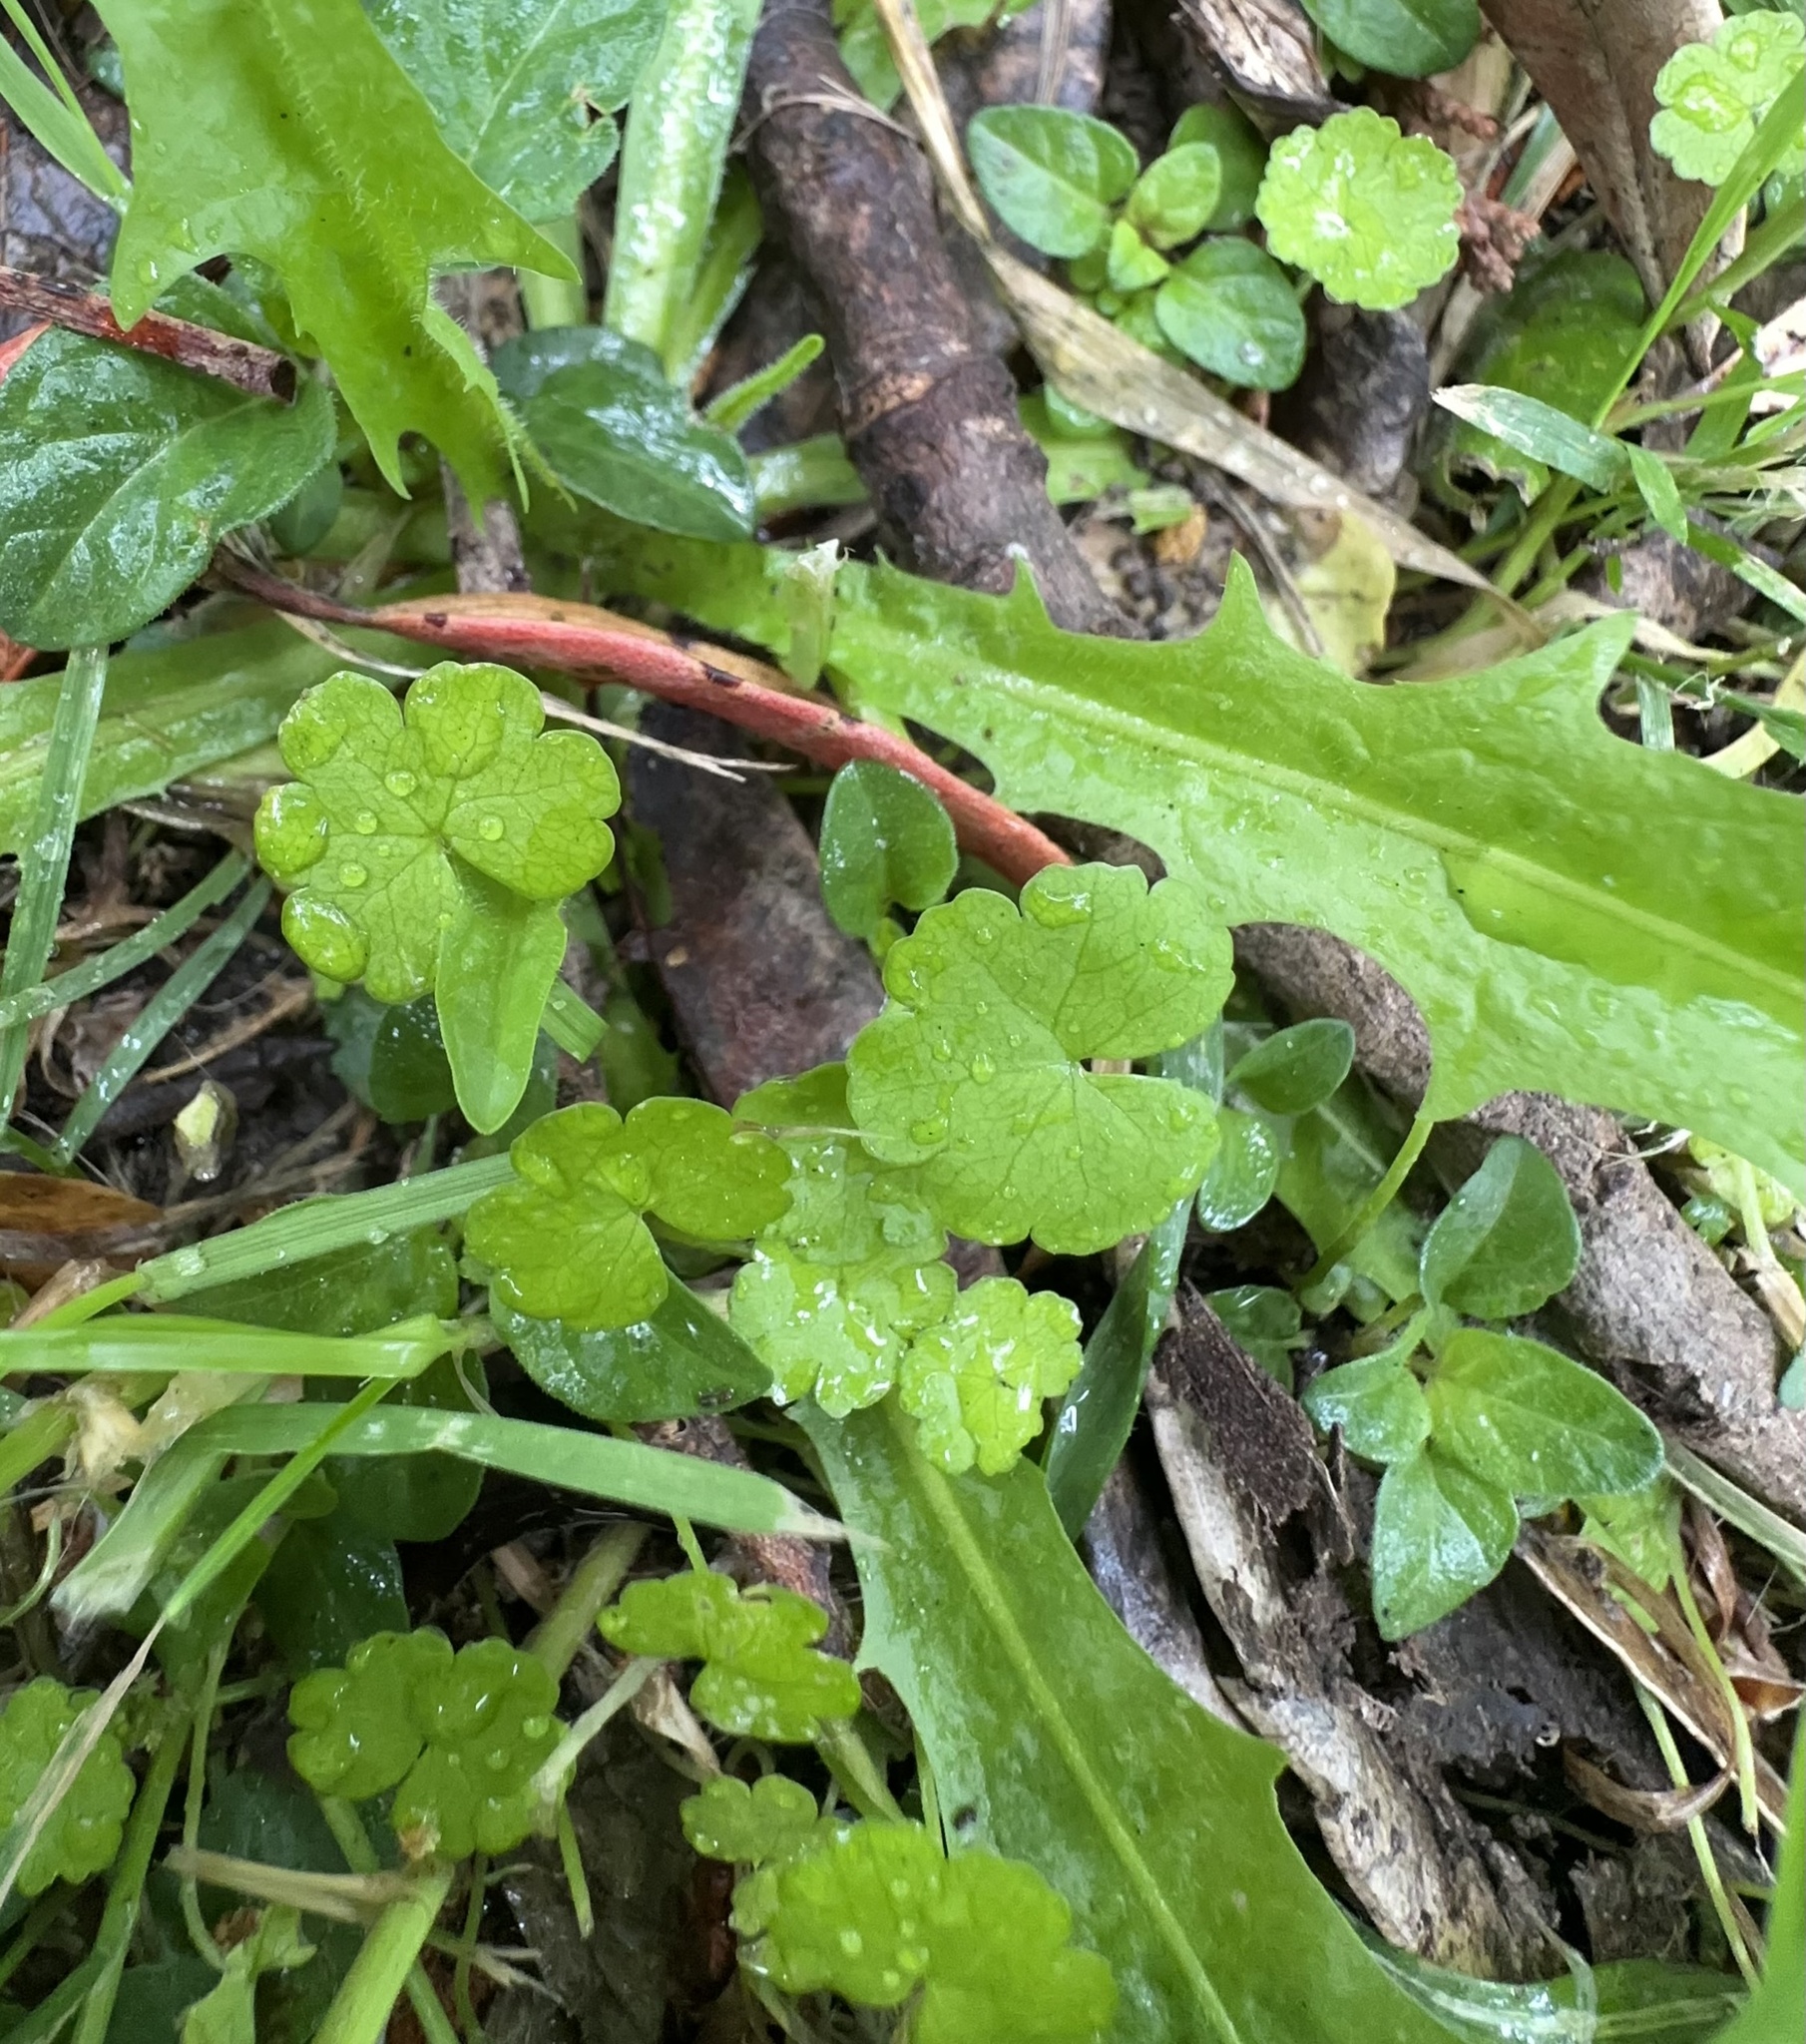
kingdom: Plantae
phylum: Tracheophyta
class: Magnoliopsida
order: Apiales
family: Araliaceae
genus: Hydrocotyle
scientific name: Hydrocotyle heteromeria
